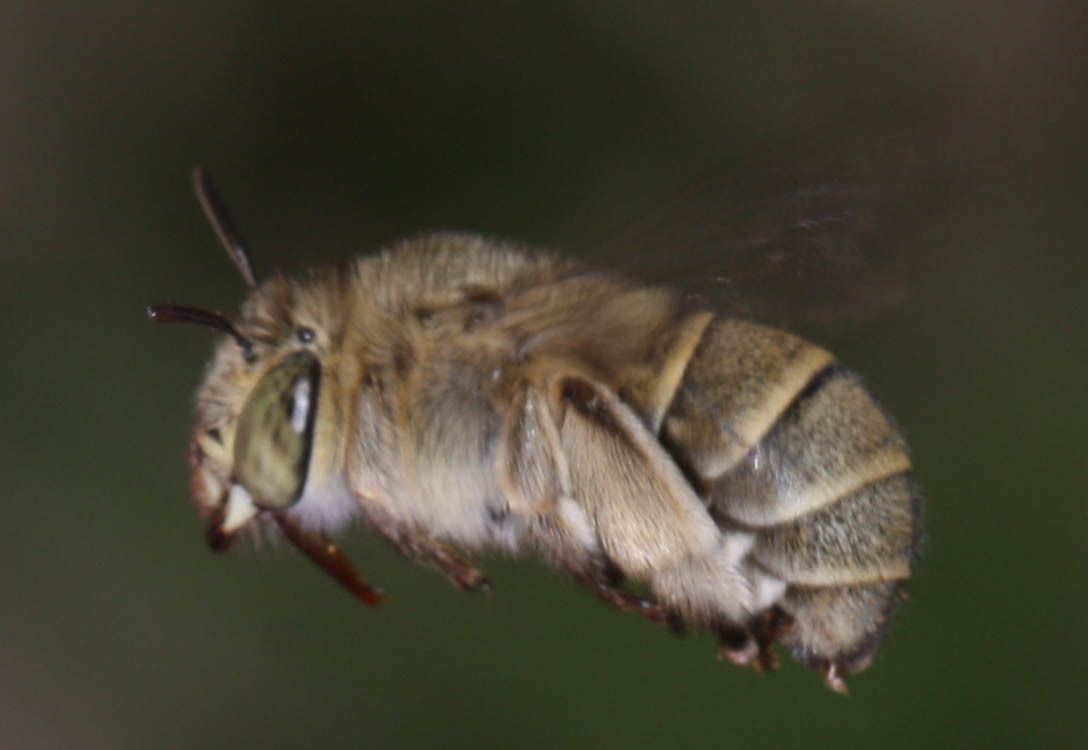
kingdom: Animalia
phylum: Arthropoda
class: Insecta
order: Hymenoptera
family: Apidae
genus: Amegilla
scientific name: Amegilla antimena
